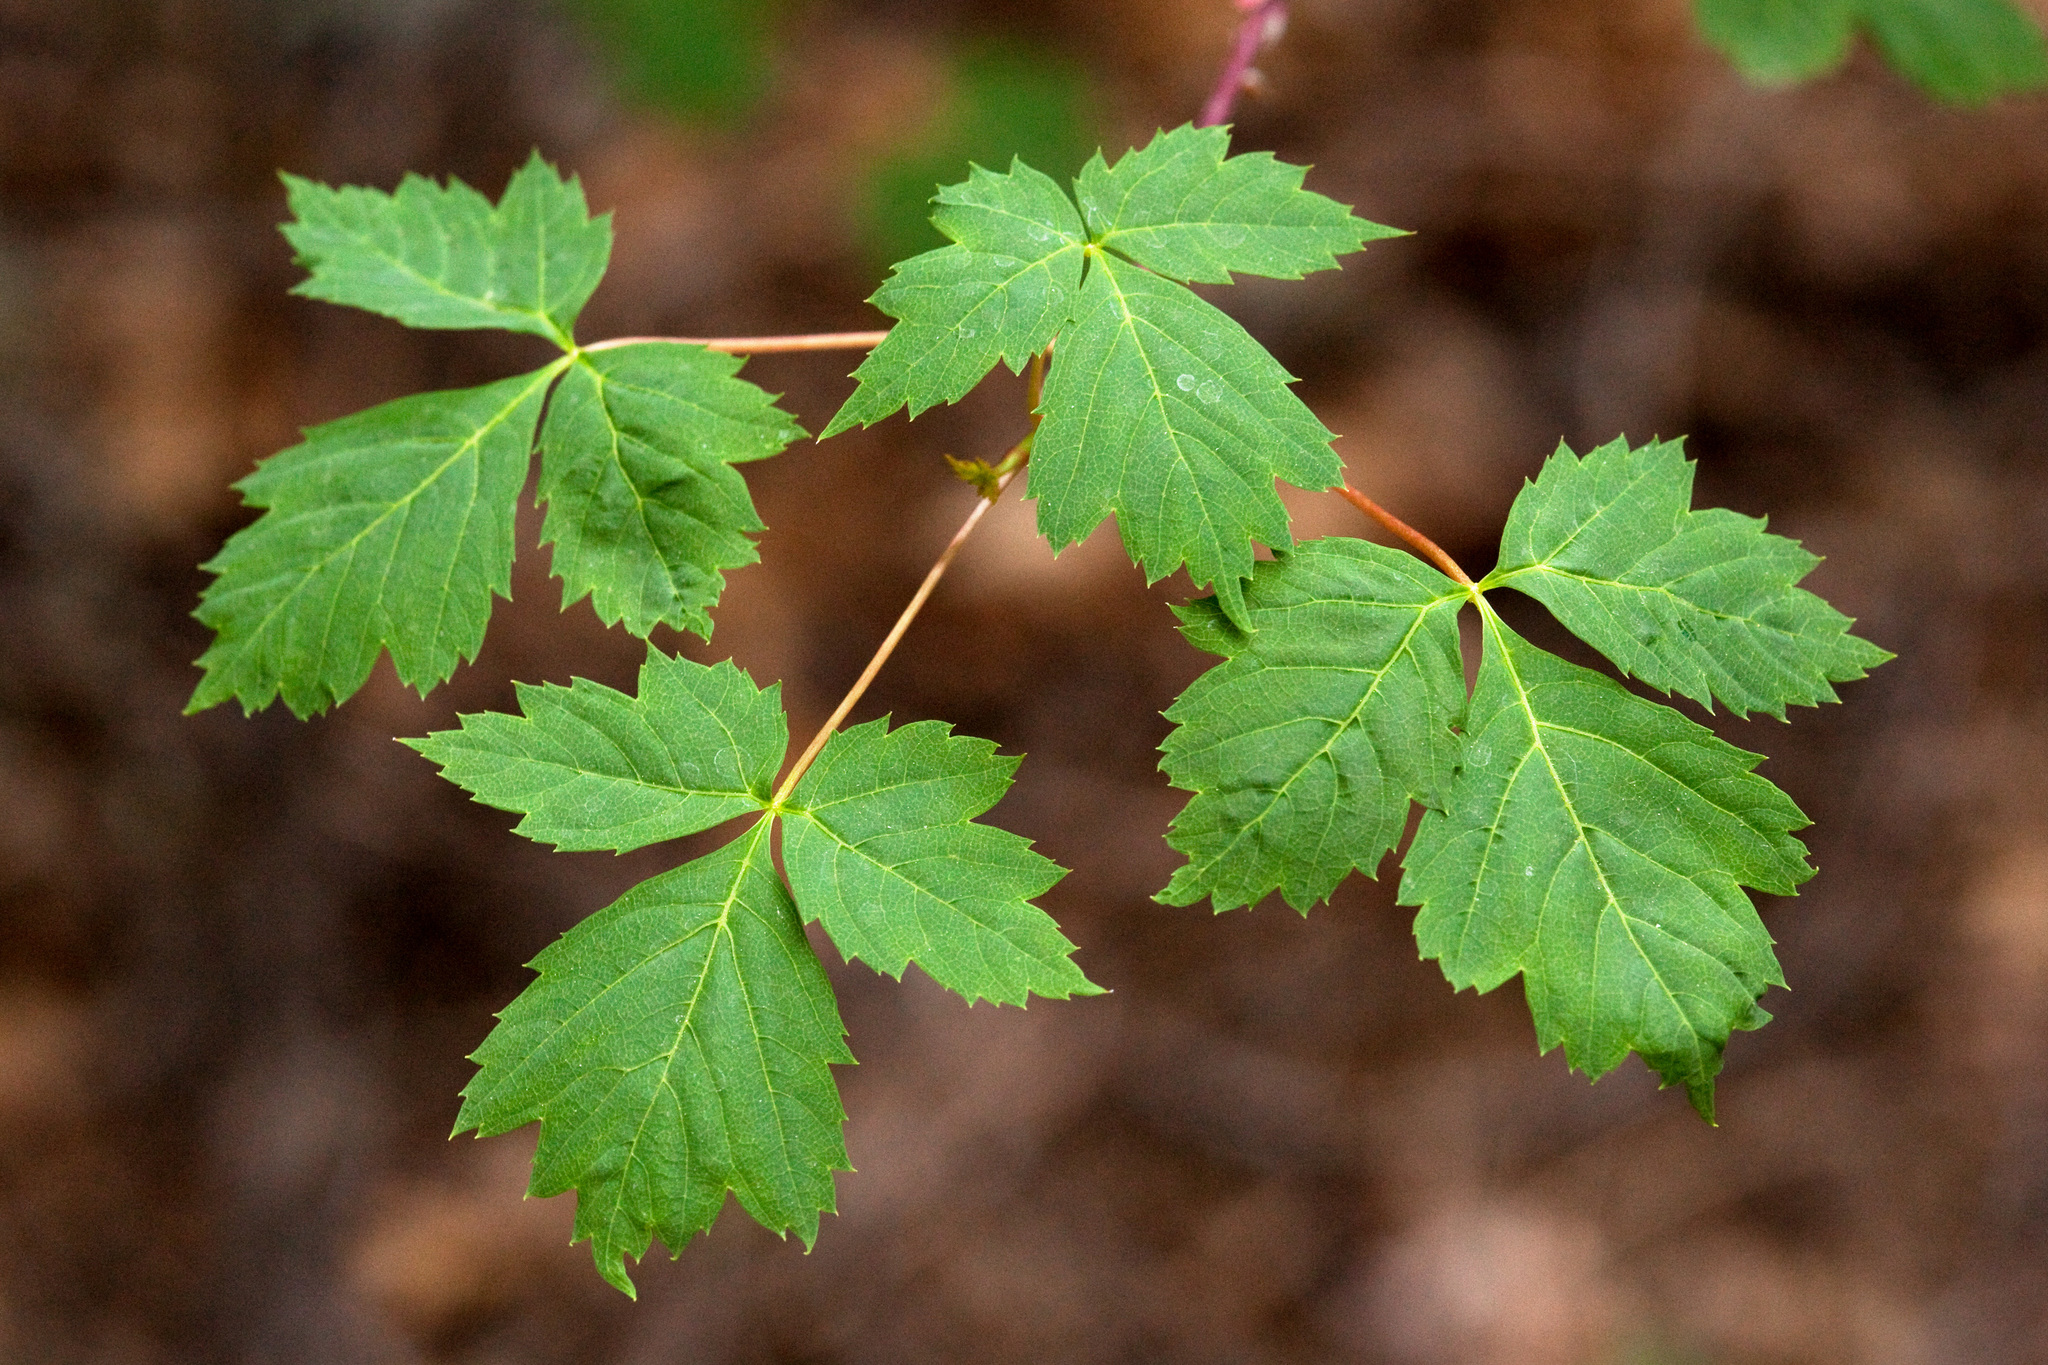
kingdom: Plantae
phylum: Tracheophyta
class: Magnoliopsida
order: Sapindales
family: Sapindaceae
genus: Acer
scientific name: Acer glabrum
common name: Rocky mountain maple
